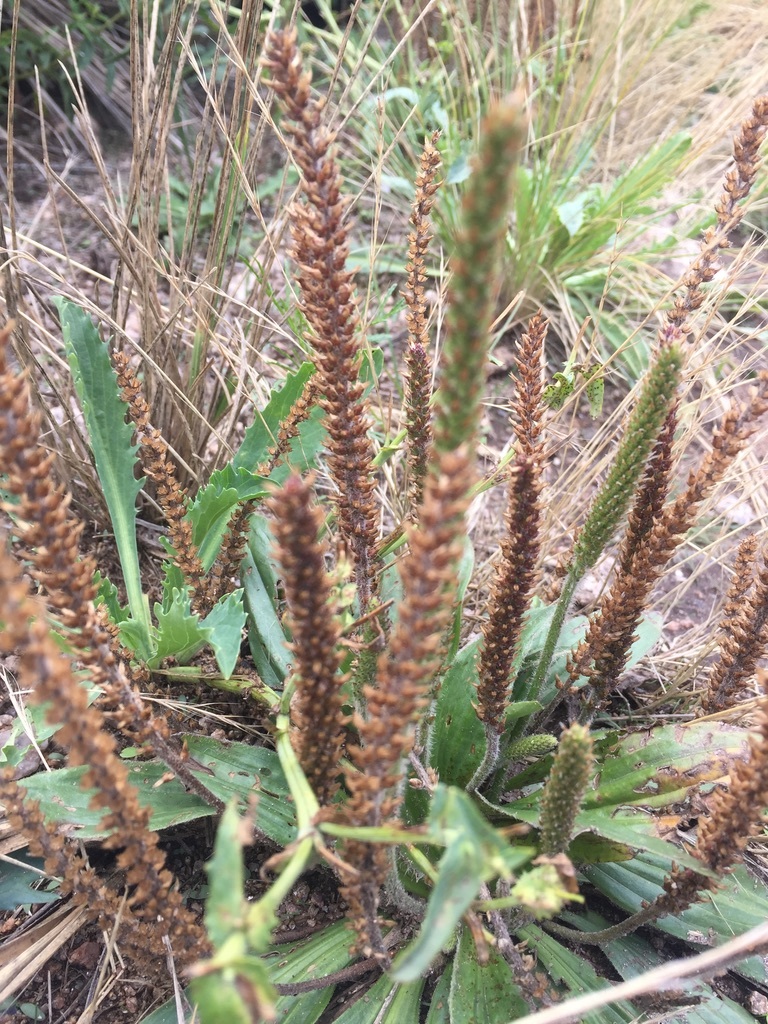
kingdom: Plantae
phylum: Tracheophyta
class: Magnoliopsida
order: Lamiales
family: Plantaginaceae
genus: Plantago
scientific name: Plantago australis
